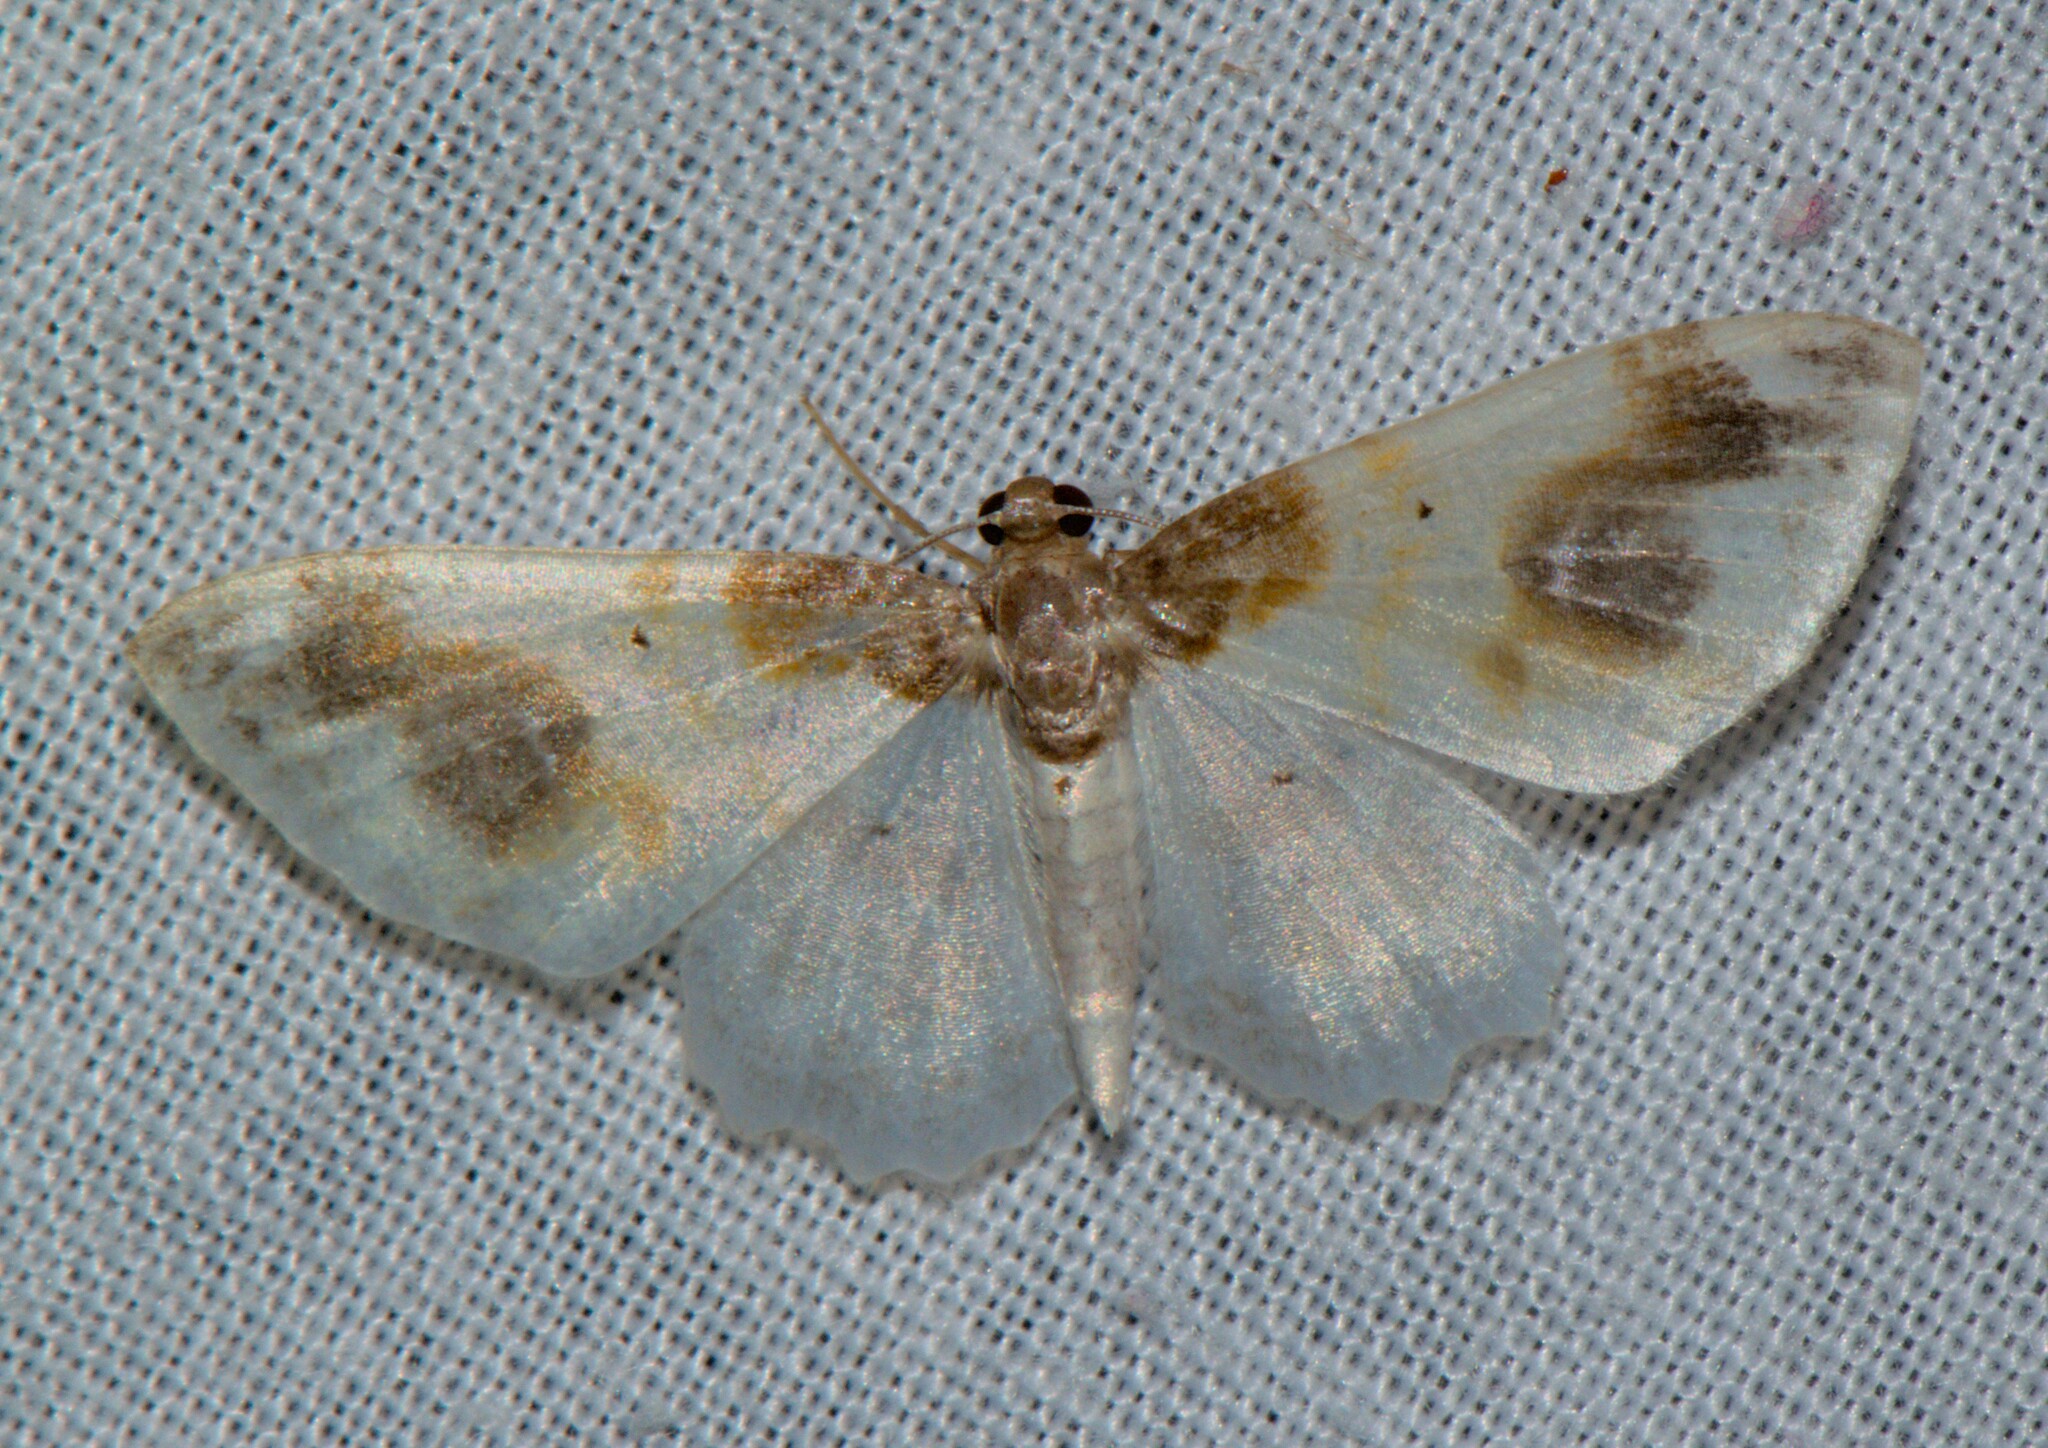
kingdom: Animalia
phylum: Arthropoda
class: Insecta
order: Lepidoptera
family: Geometridae
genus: Agnibesa
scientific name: Agnibesa pictaria
